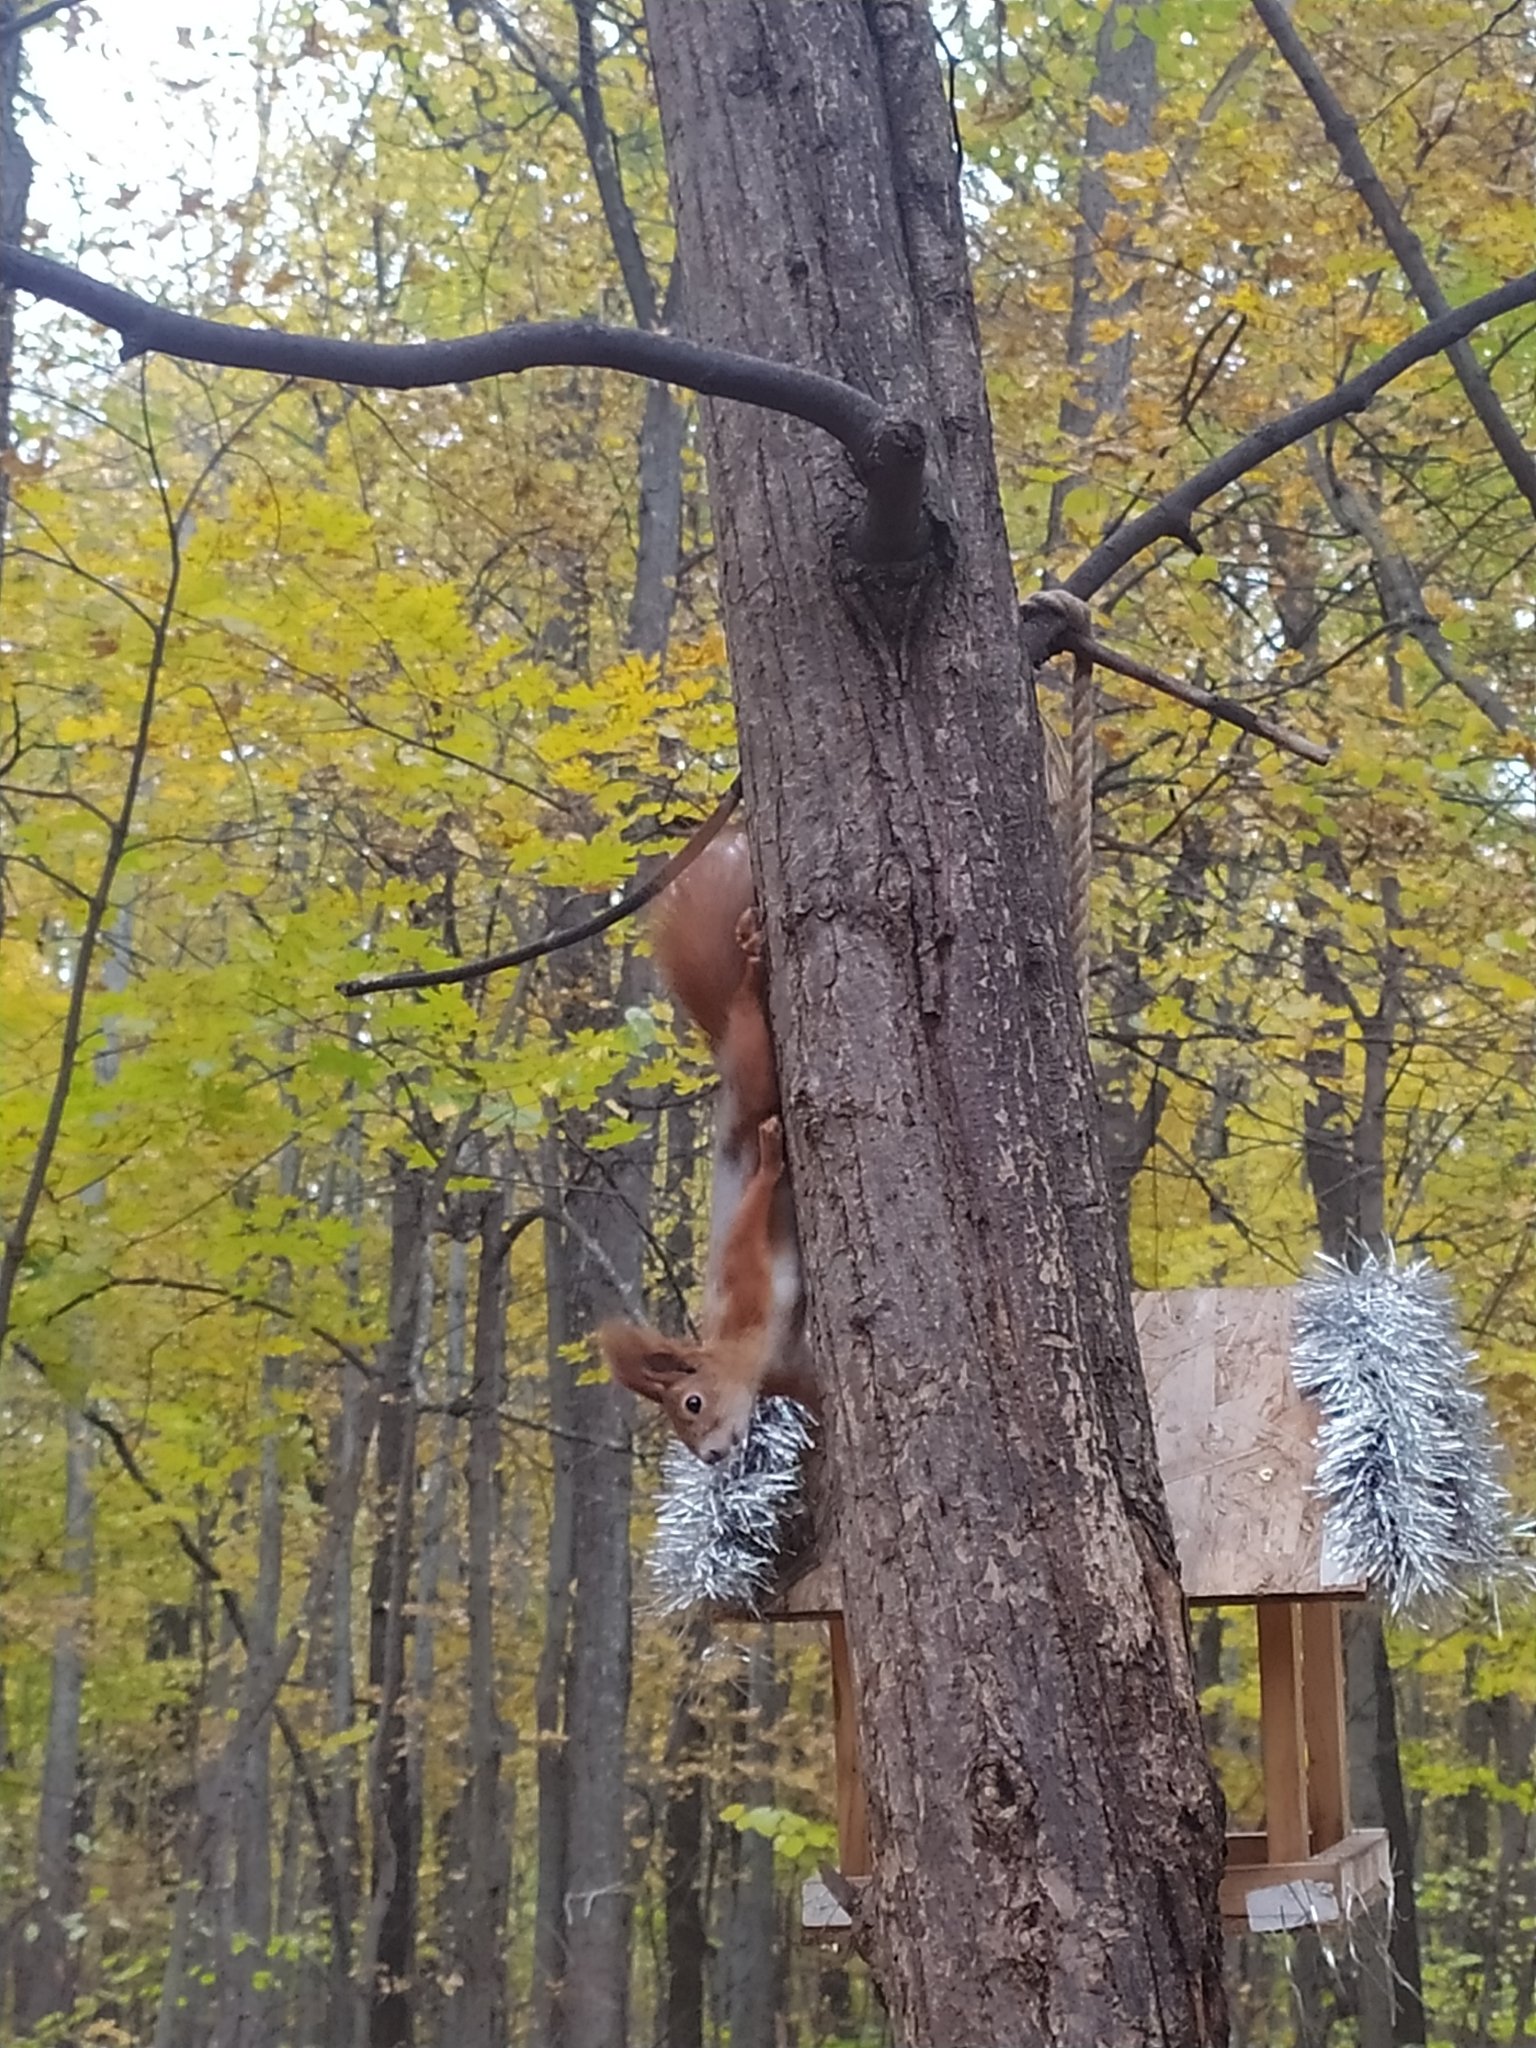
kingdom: Animalia
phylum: Chordata
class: Mammalia
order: Rodentia
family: Sciuridae
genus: Sciurus
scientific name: Sciurus vulgaris
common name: Eurasian red squirrel
